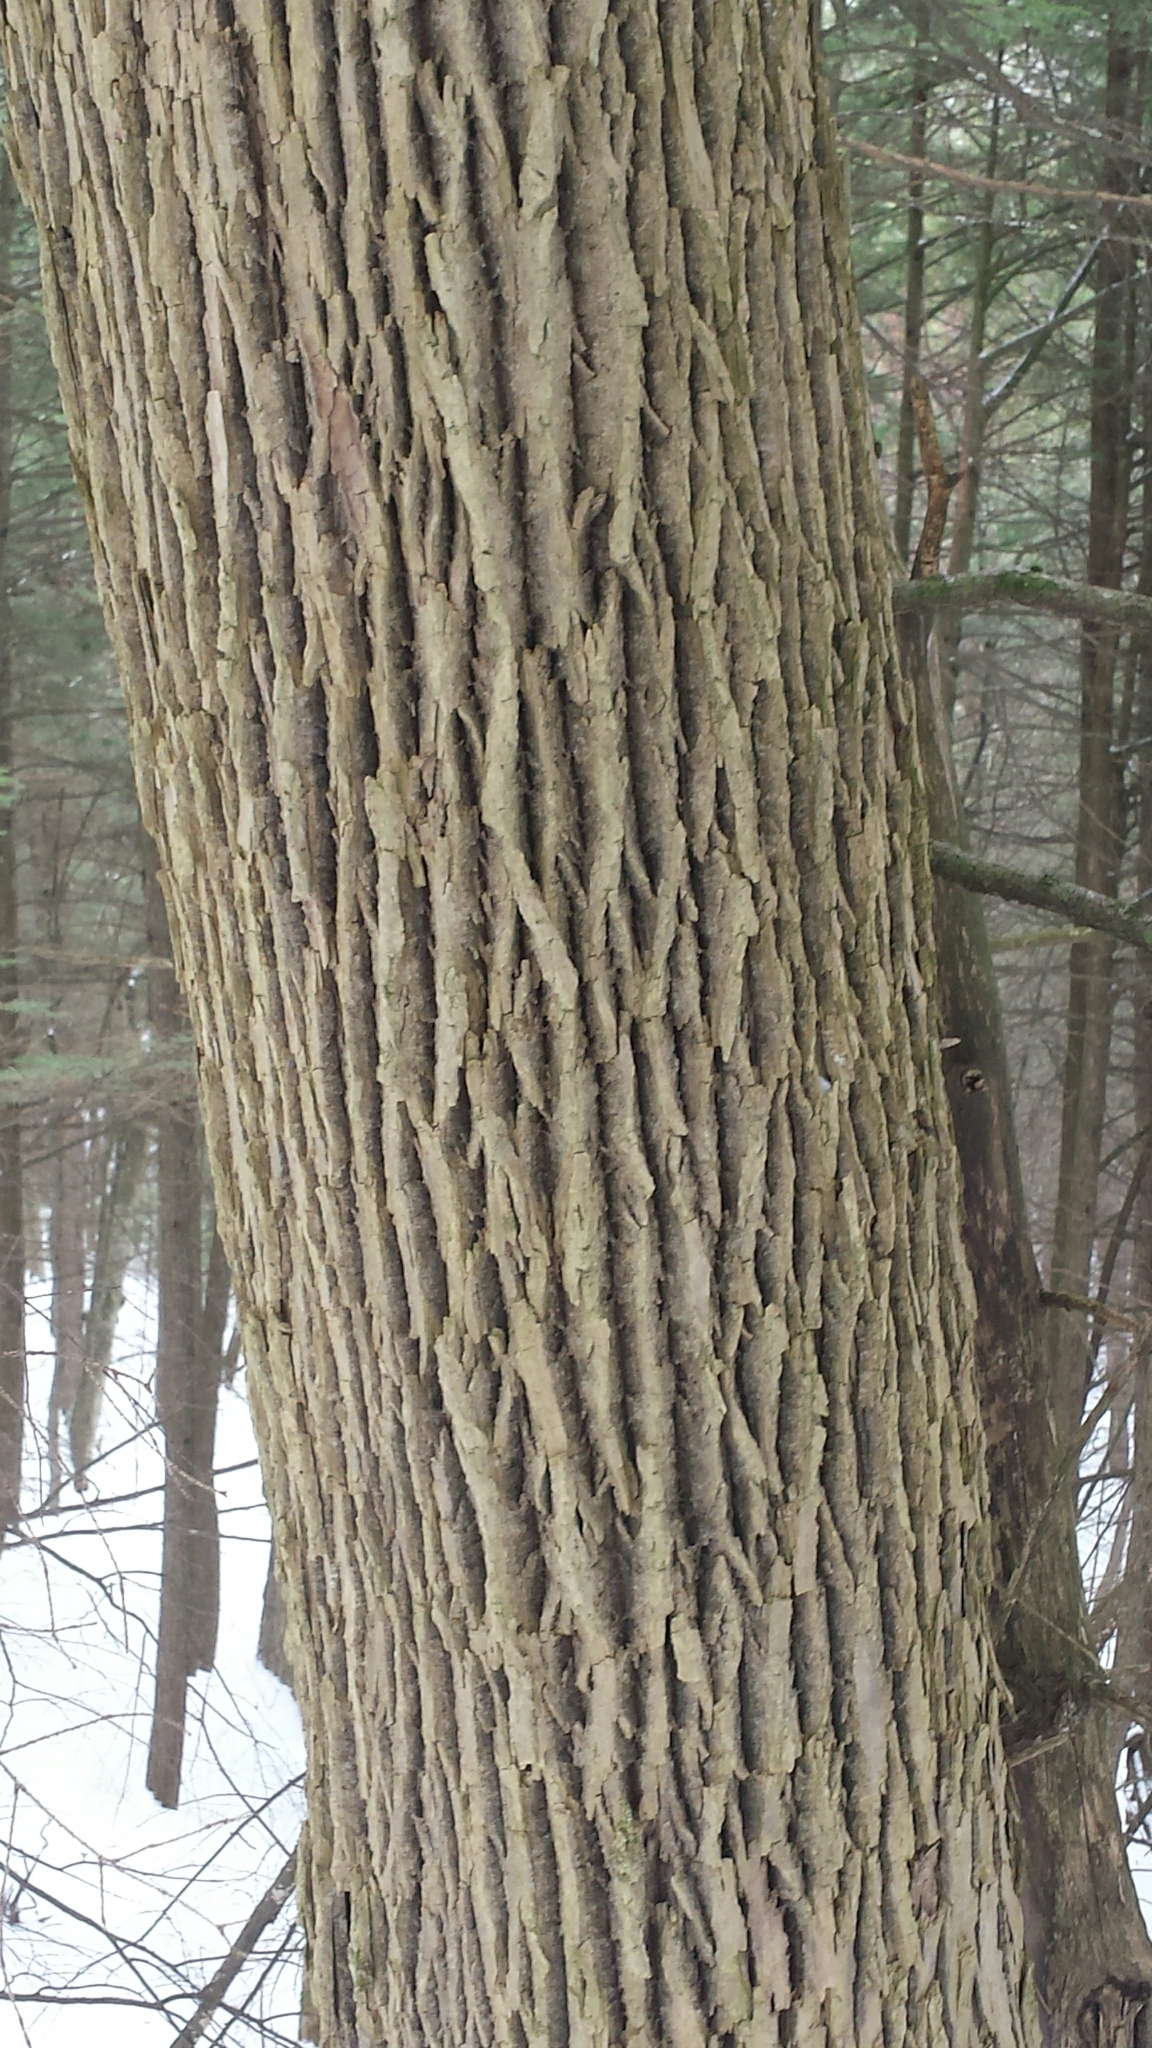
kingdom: Plantae
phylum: Tracheophyta
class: Magnoliopsida
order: Lamiales
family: Oleaceae
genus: Fraxinus
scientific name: Fraxinus americana
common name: White ash
